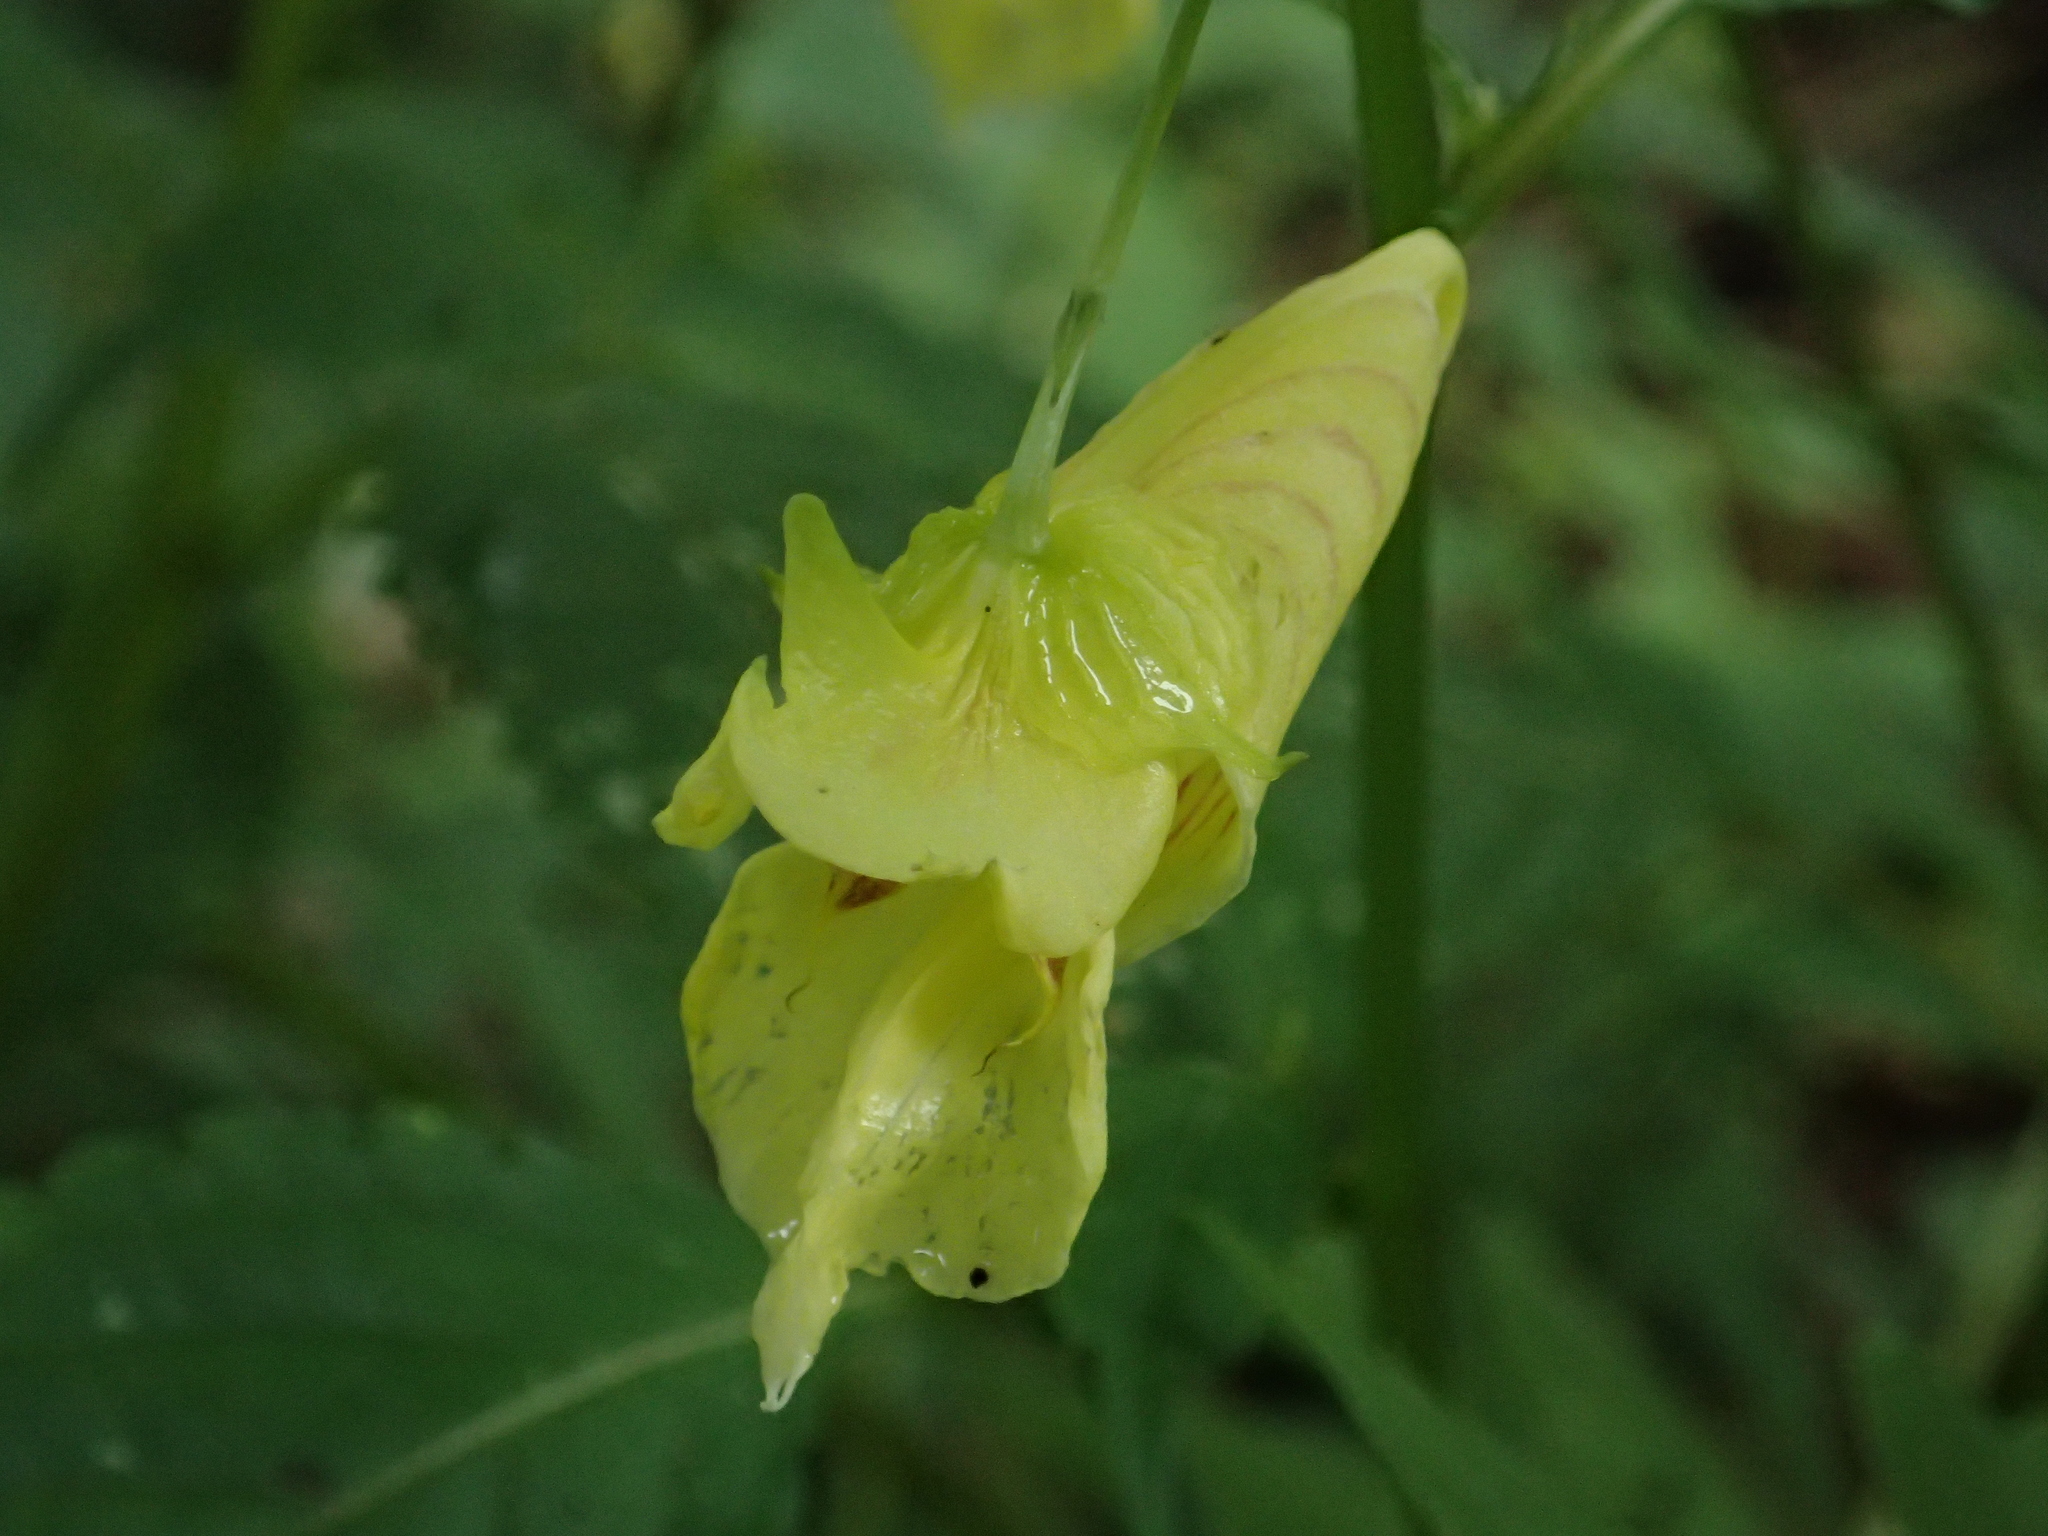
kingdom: Plantae
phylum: Tracheophyta
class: Magnoliopsida
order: Ericales
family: Balsaminaceae
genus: Impatiens
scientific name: Impatiens tayemonii
